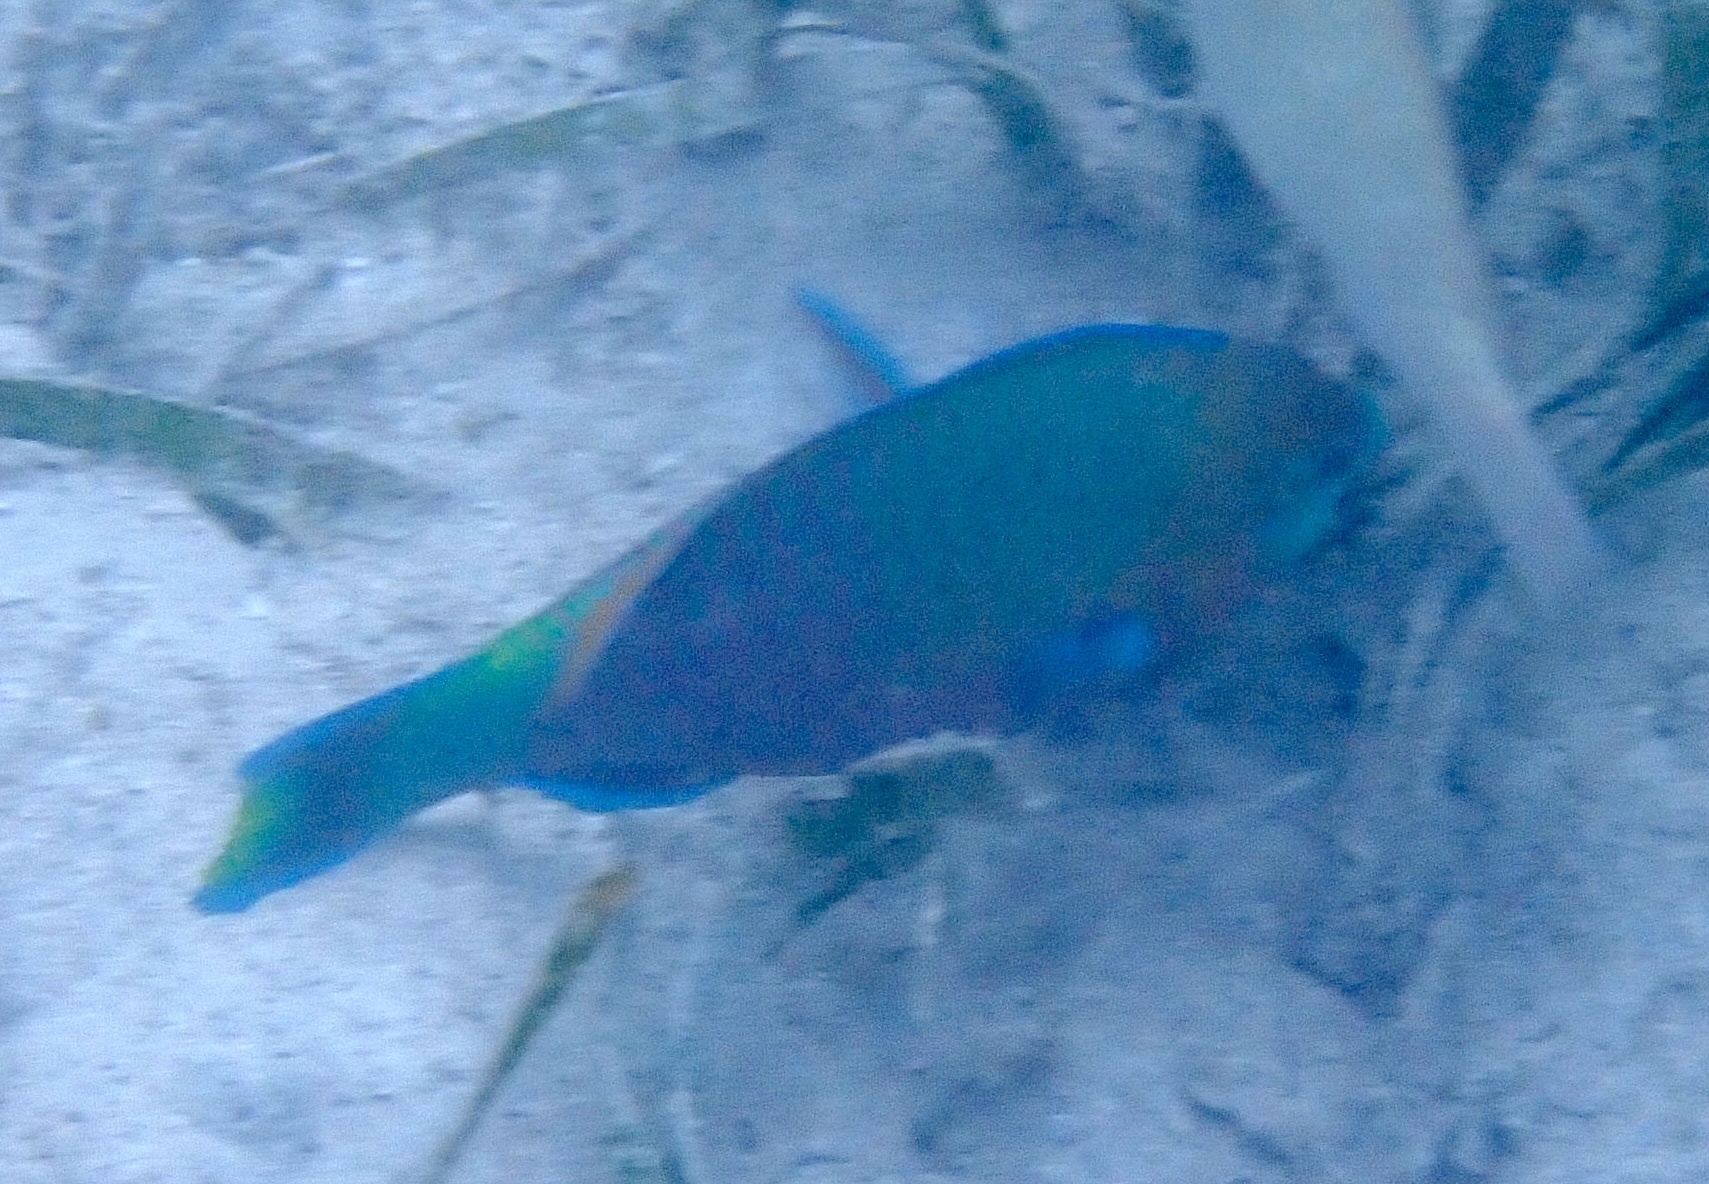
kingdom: Animalia
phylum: Chordata
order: Perciformes
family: Scaridae
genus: Scarus
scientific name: Scarus quoyi
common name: Quoy's parrotfish
